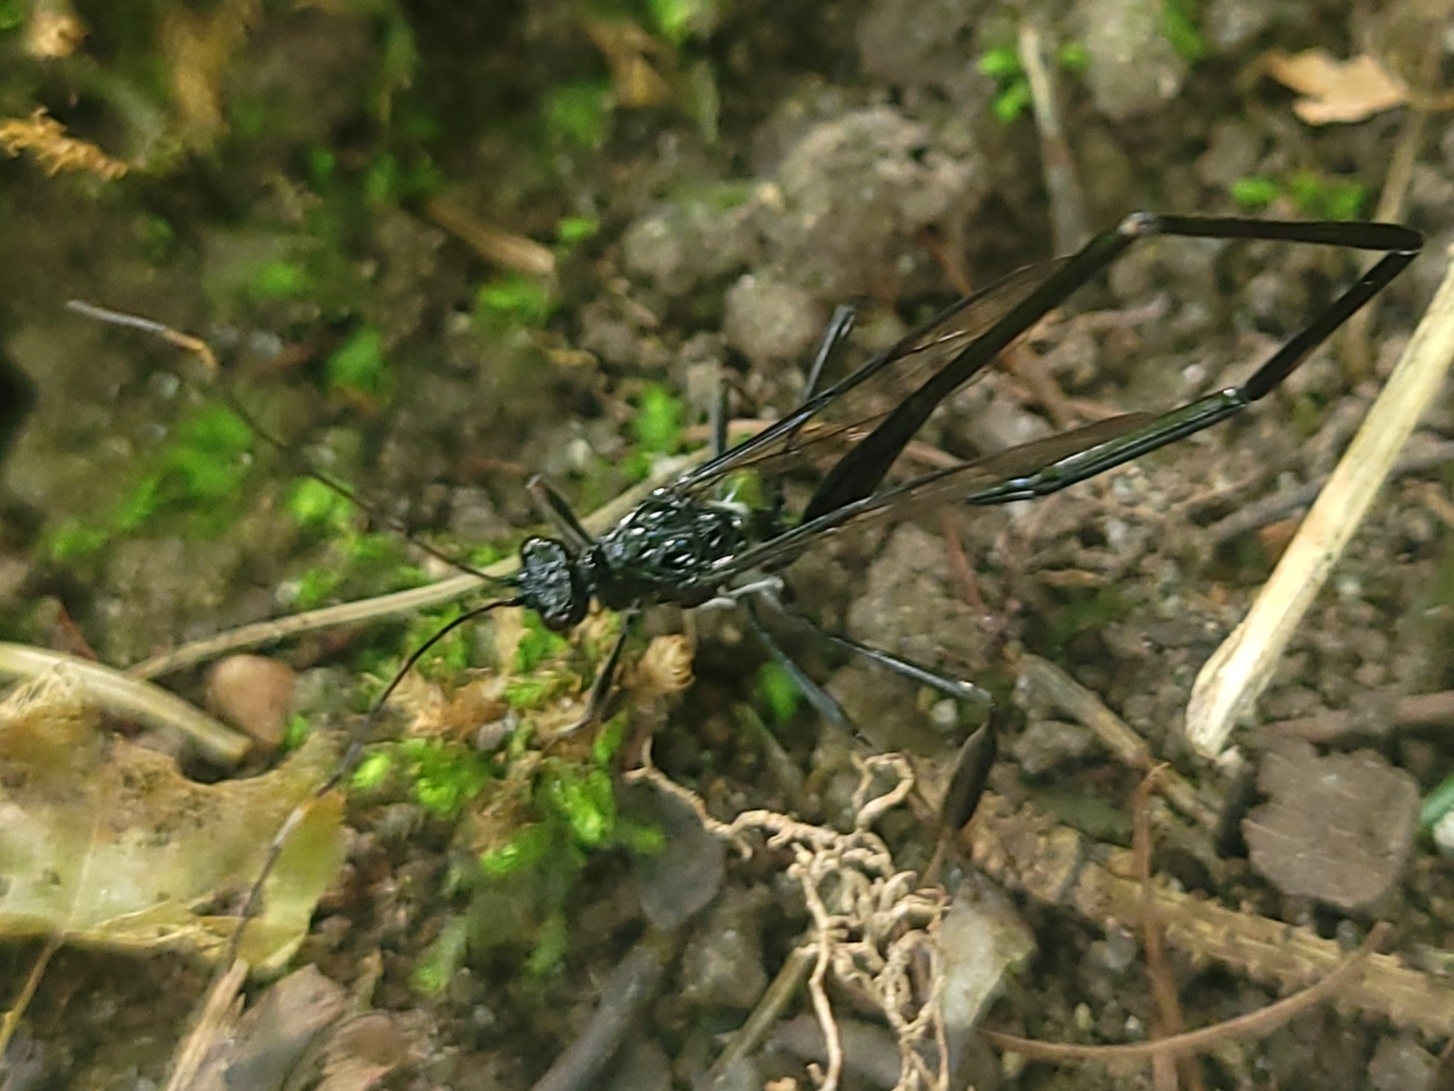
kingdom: Animalia
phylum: Arthropoda
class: Insecta
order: Hymenoptera
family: Pelecinidae
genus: Pelecinus
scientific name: Pelecinus polyturator
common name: American pelecinid wasp
